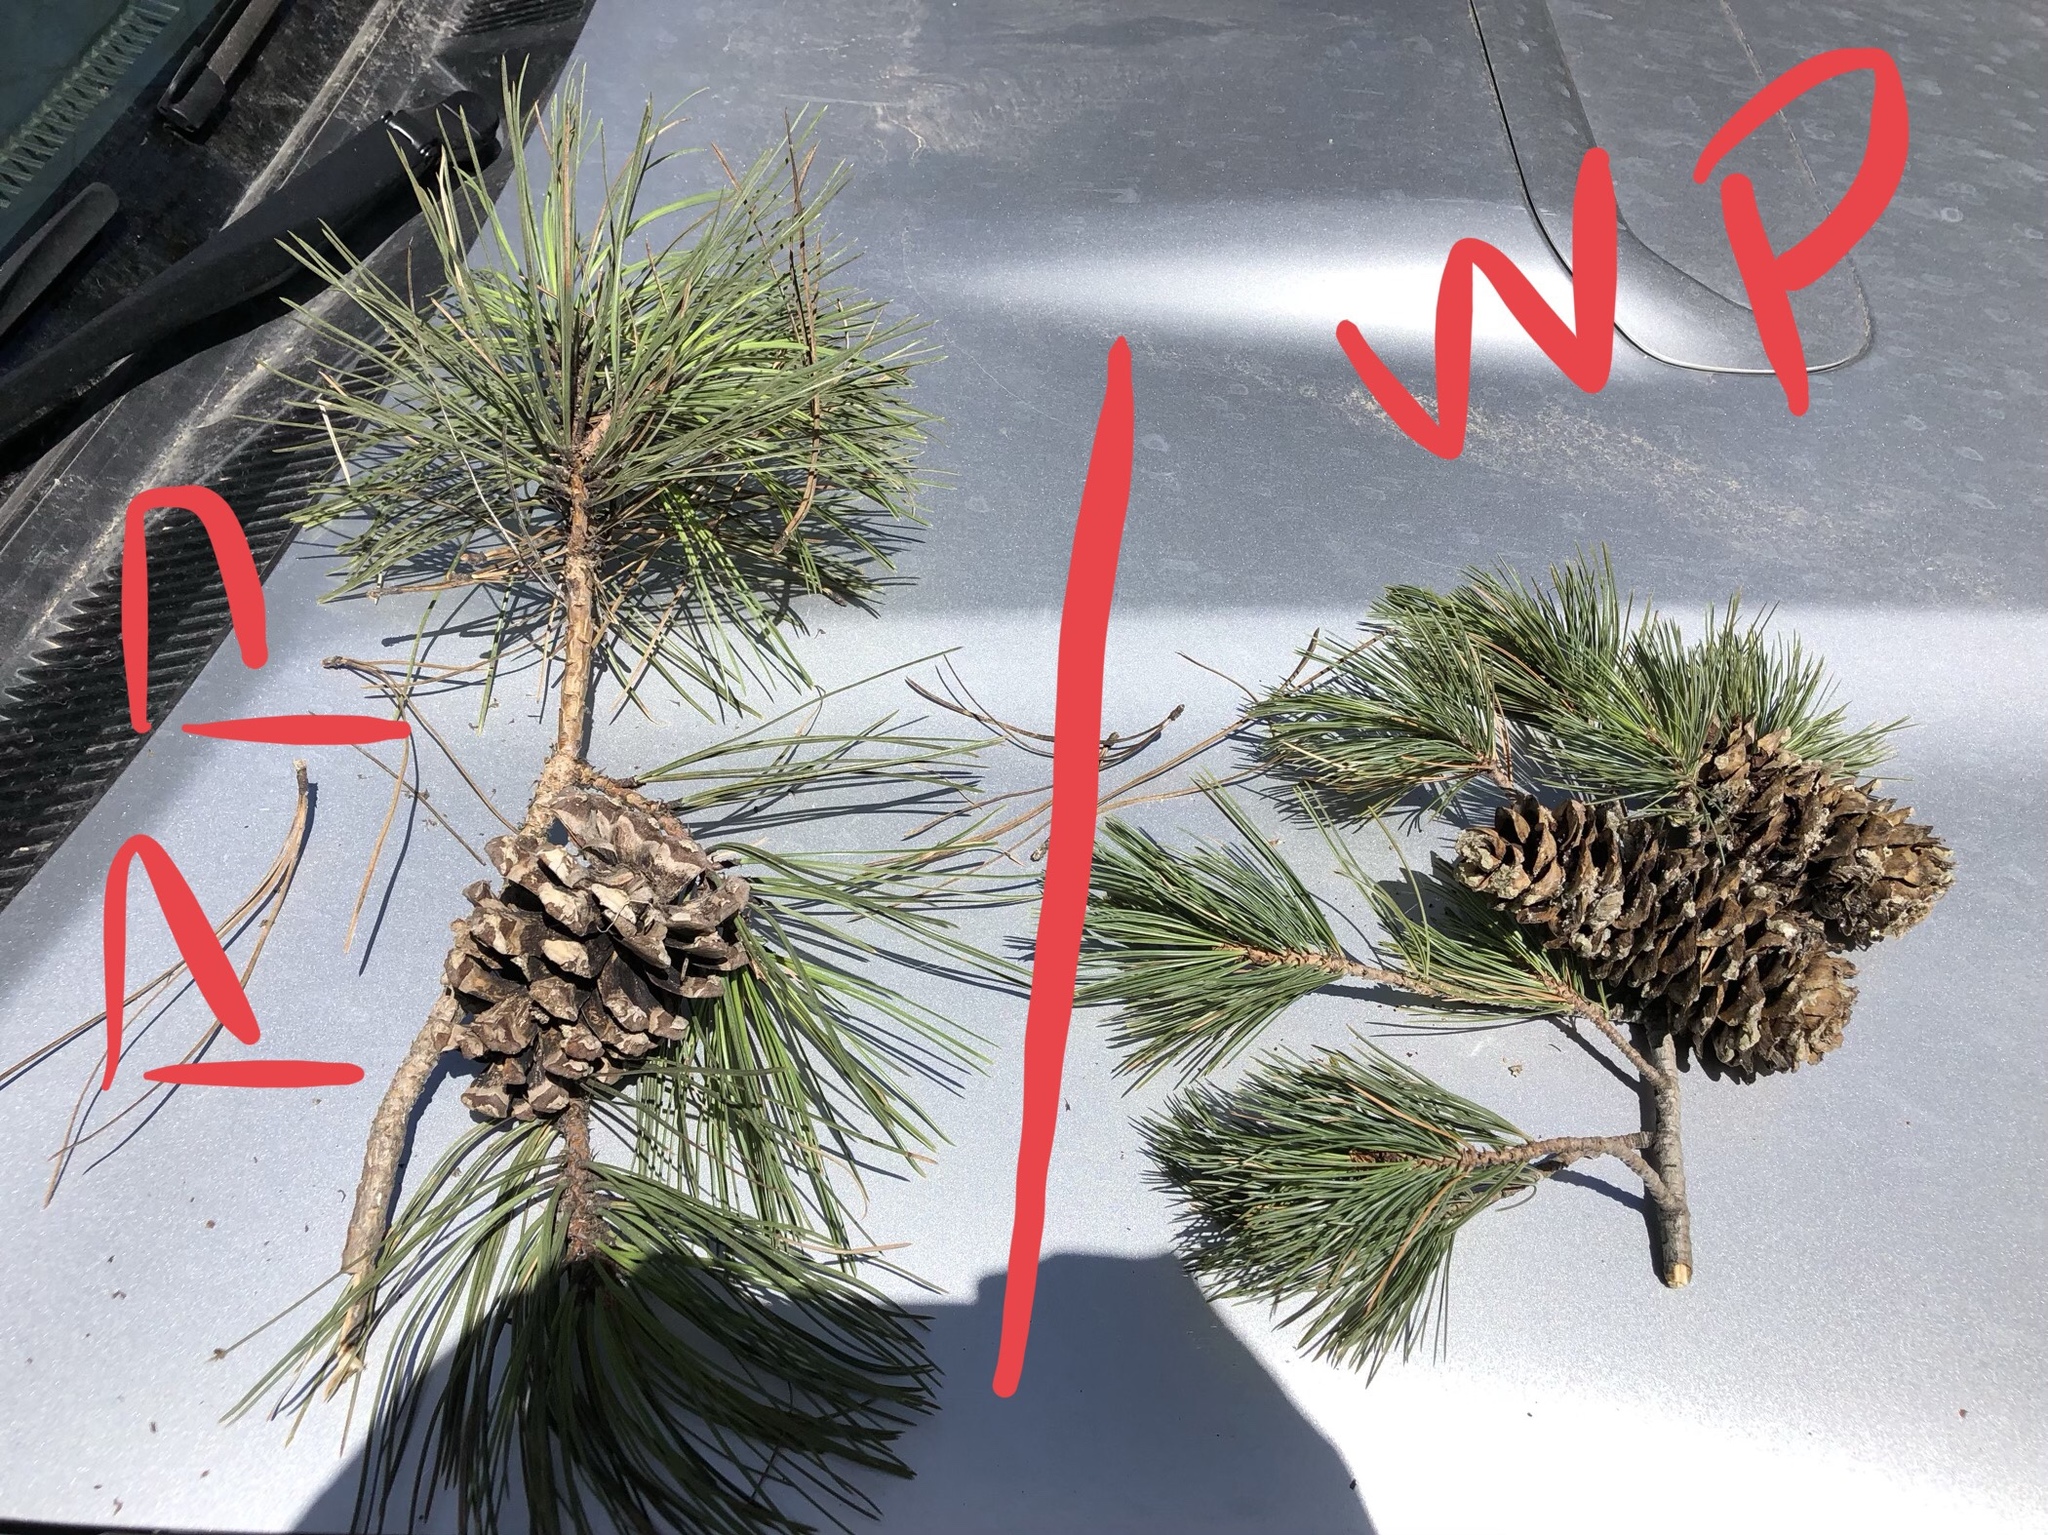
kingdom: Plantae
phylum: Tracheophyta
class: Pinopsida
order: Pinales
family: Pinaceae
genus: Pinus
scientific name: Pinus strobiformis
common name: Southwestern white pine
